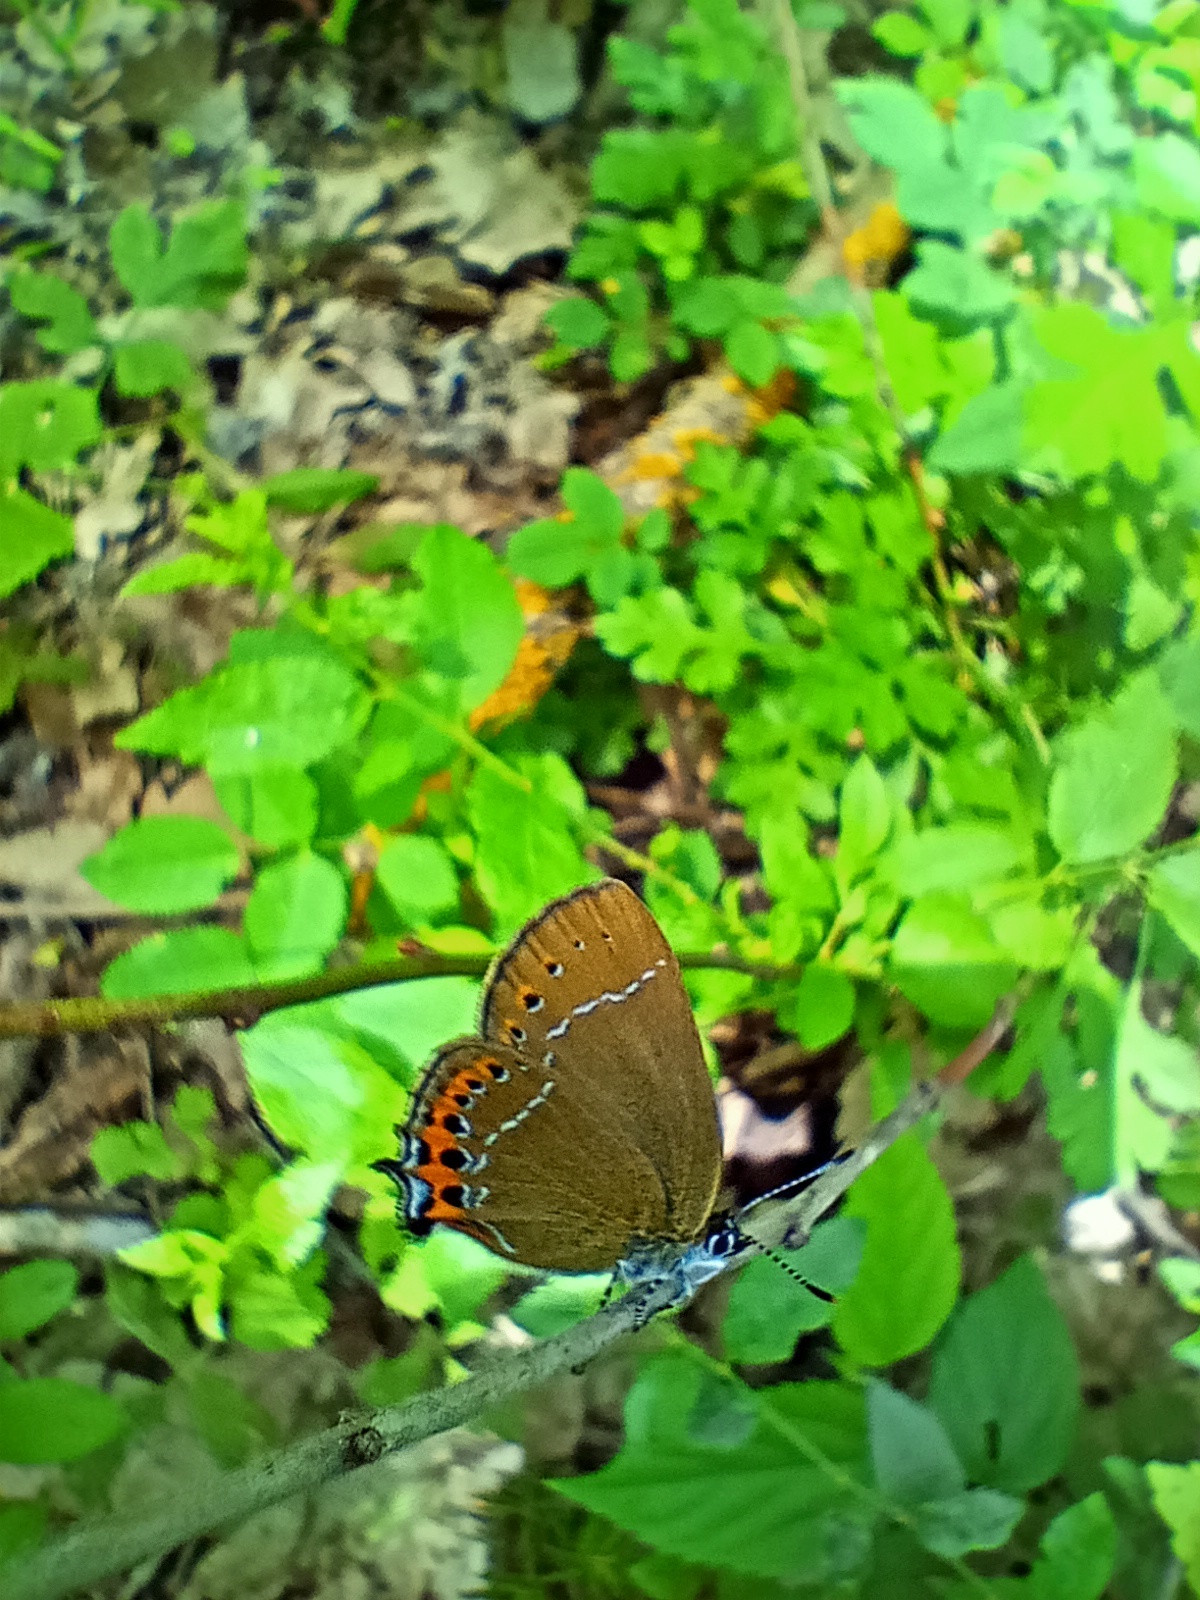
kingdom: Animalia
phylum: Arthropoda
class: Insecta
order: Lepidoptera
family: Lycaenidae
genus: Fixsenia
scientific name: Fixsenia pruni
